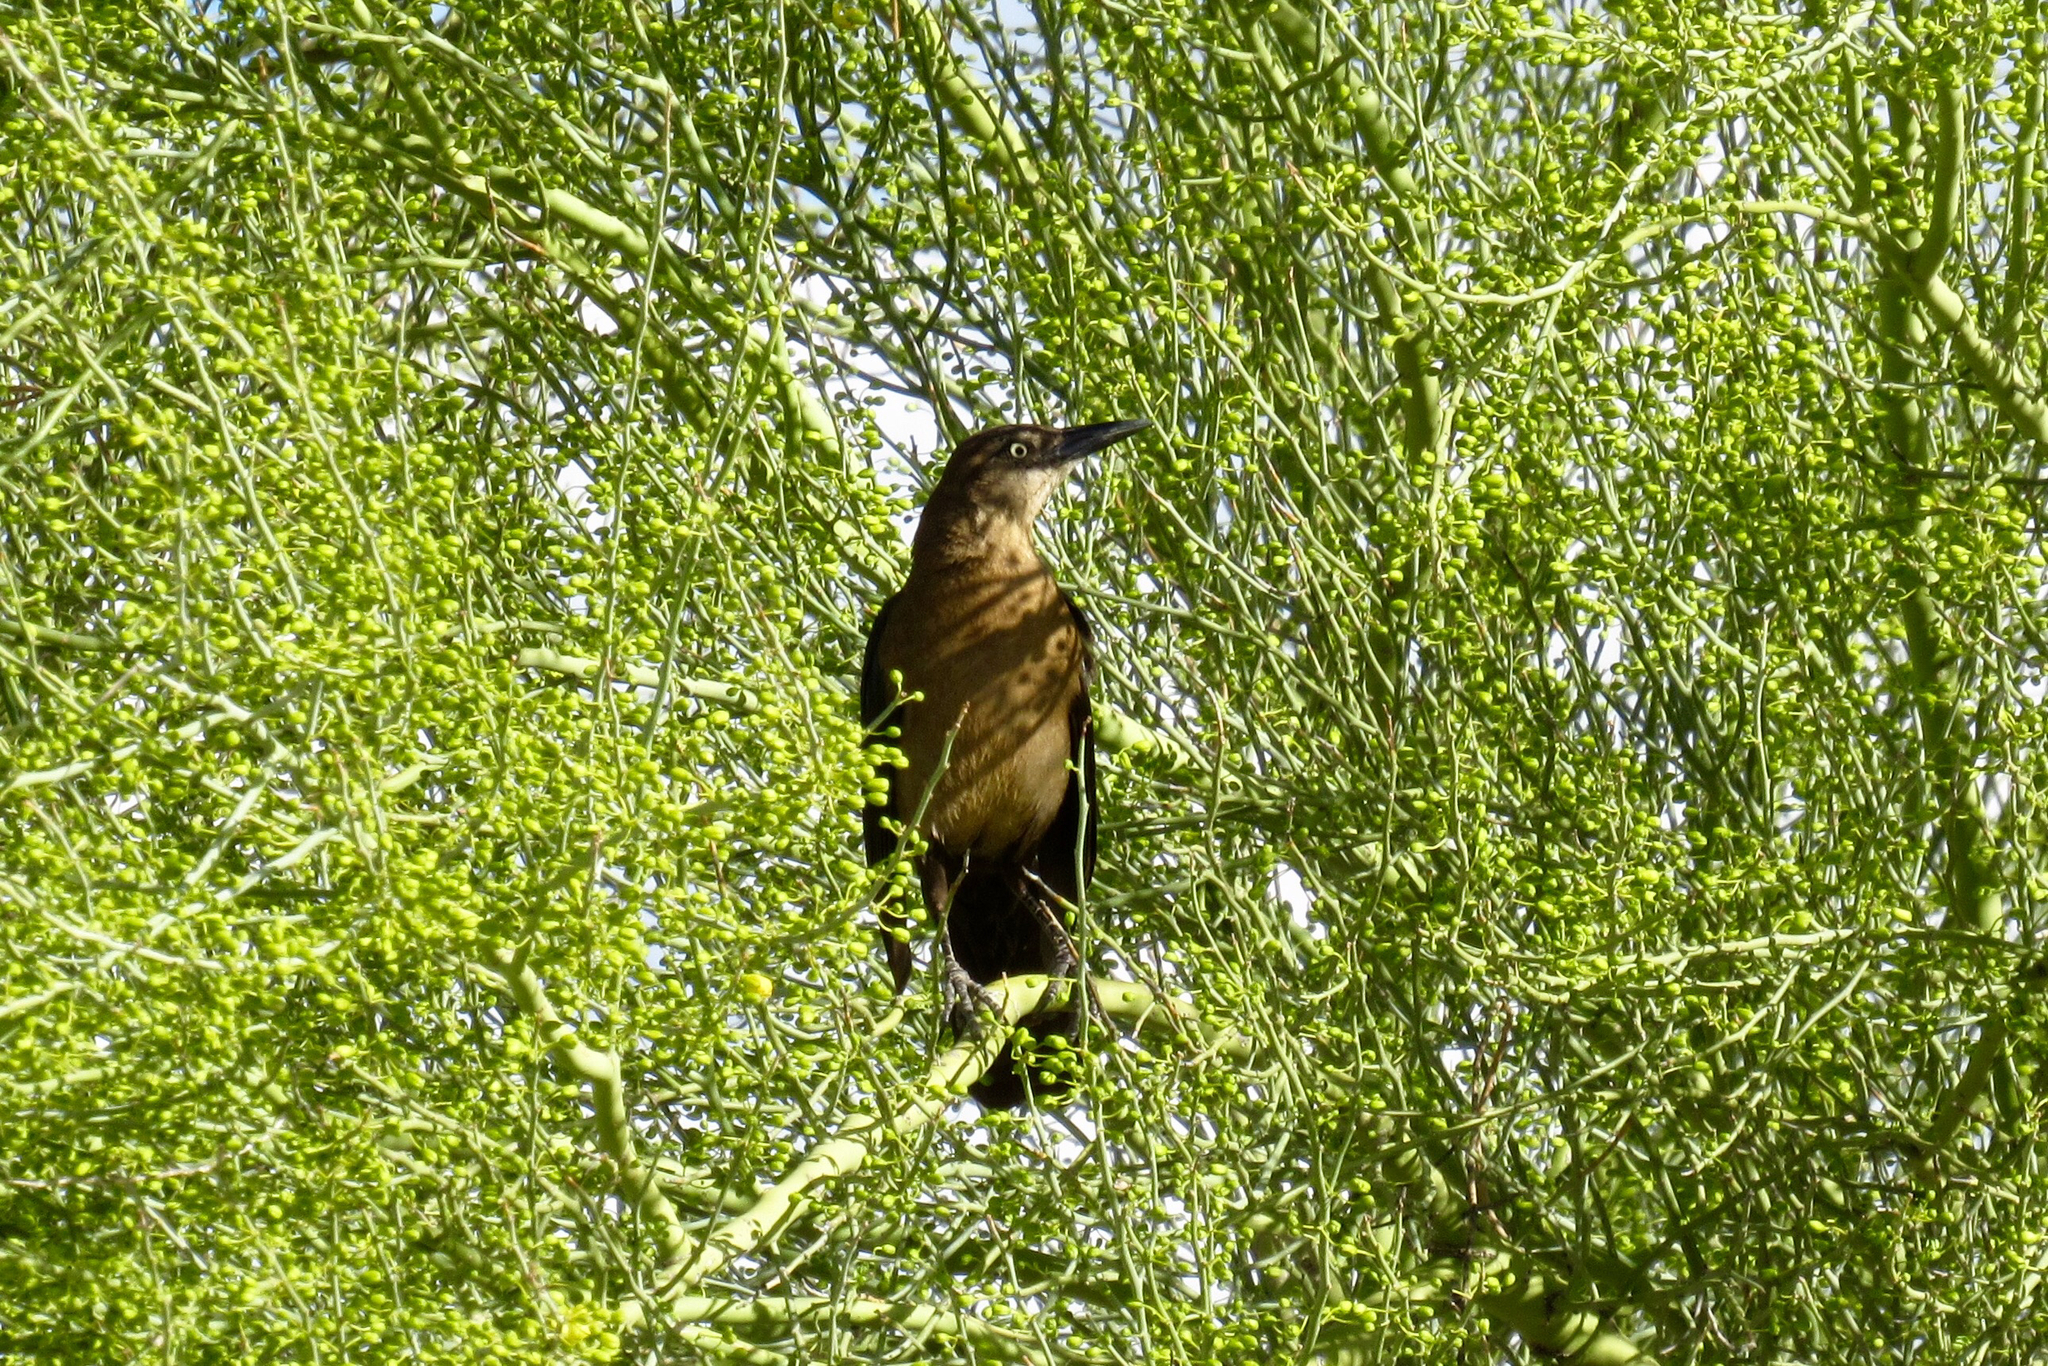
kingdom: Animalia
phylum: Chordata
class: Aves
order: Passeriformes
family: Icteridae
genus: Quiscalus
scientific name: Quiscalus mexicanus
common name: Great-tailed grackle
